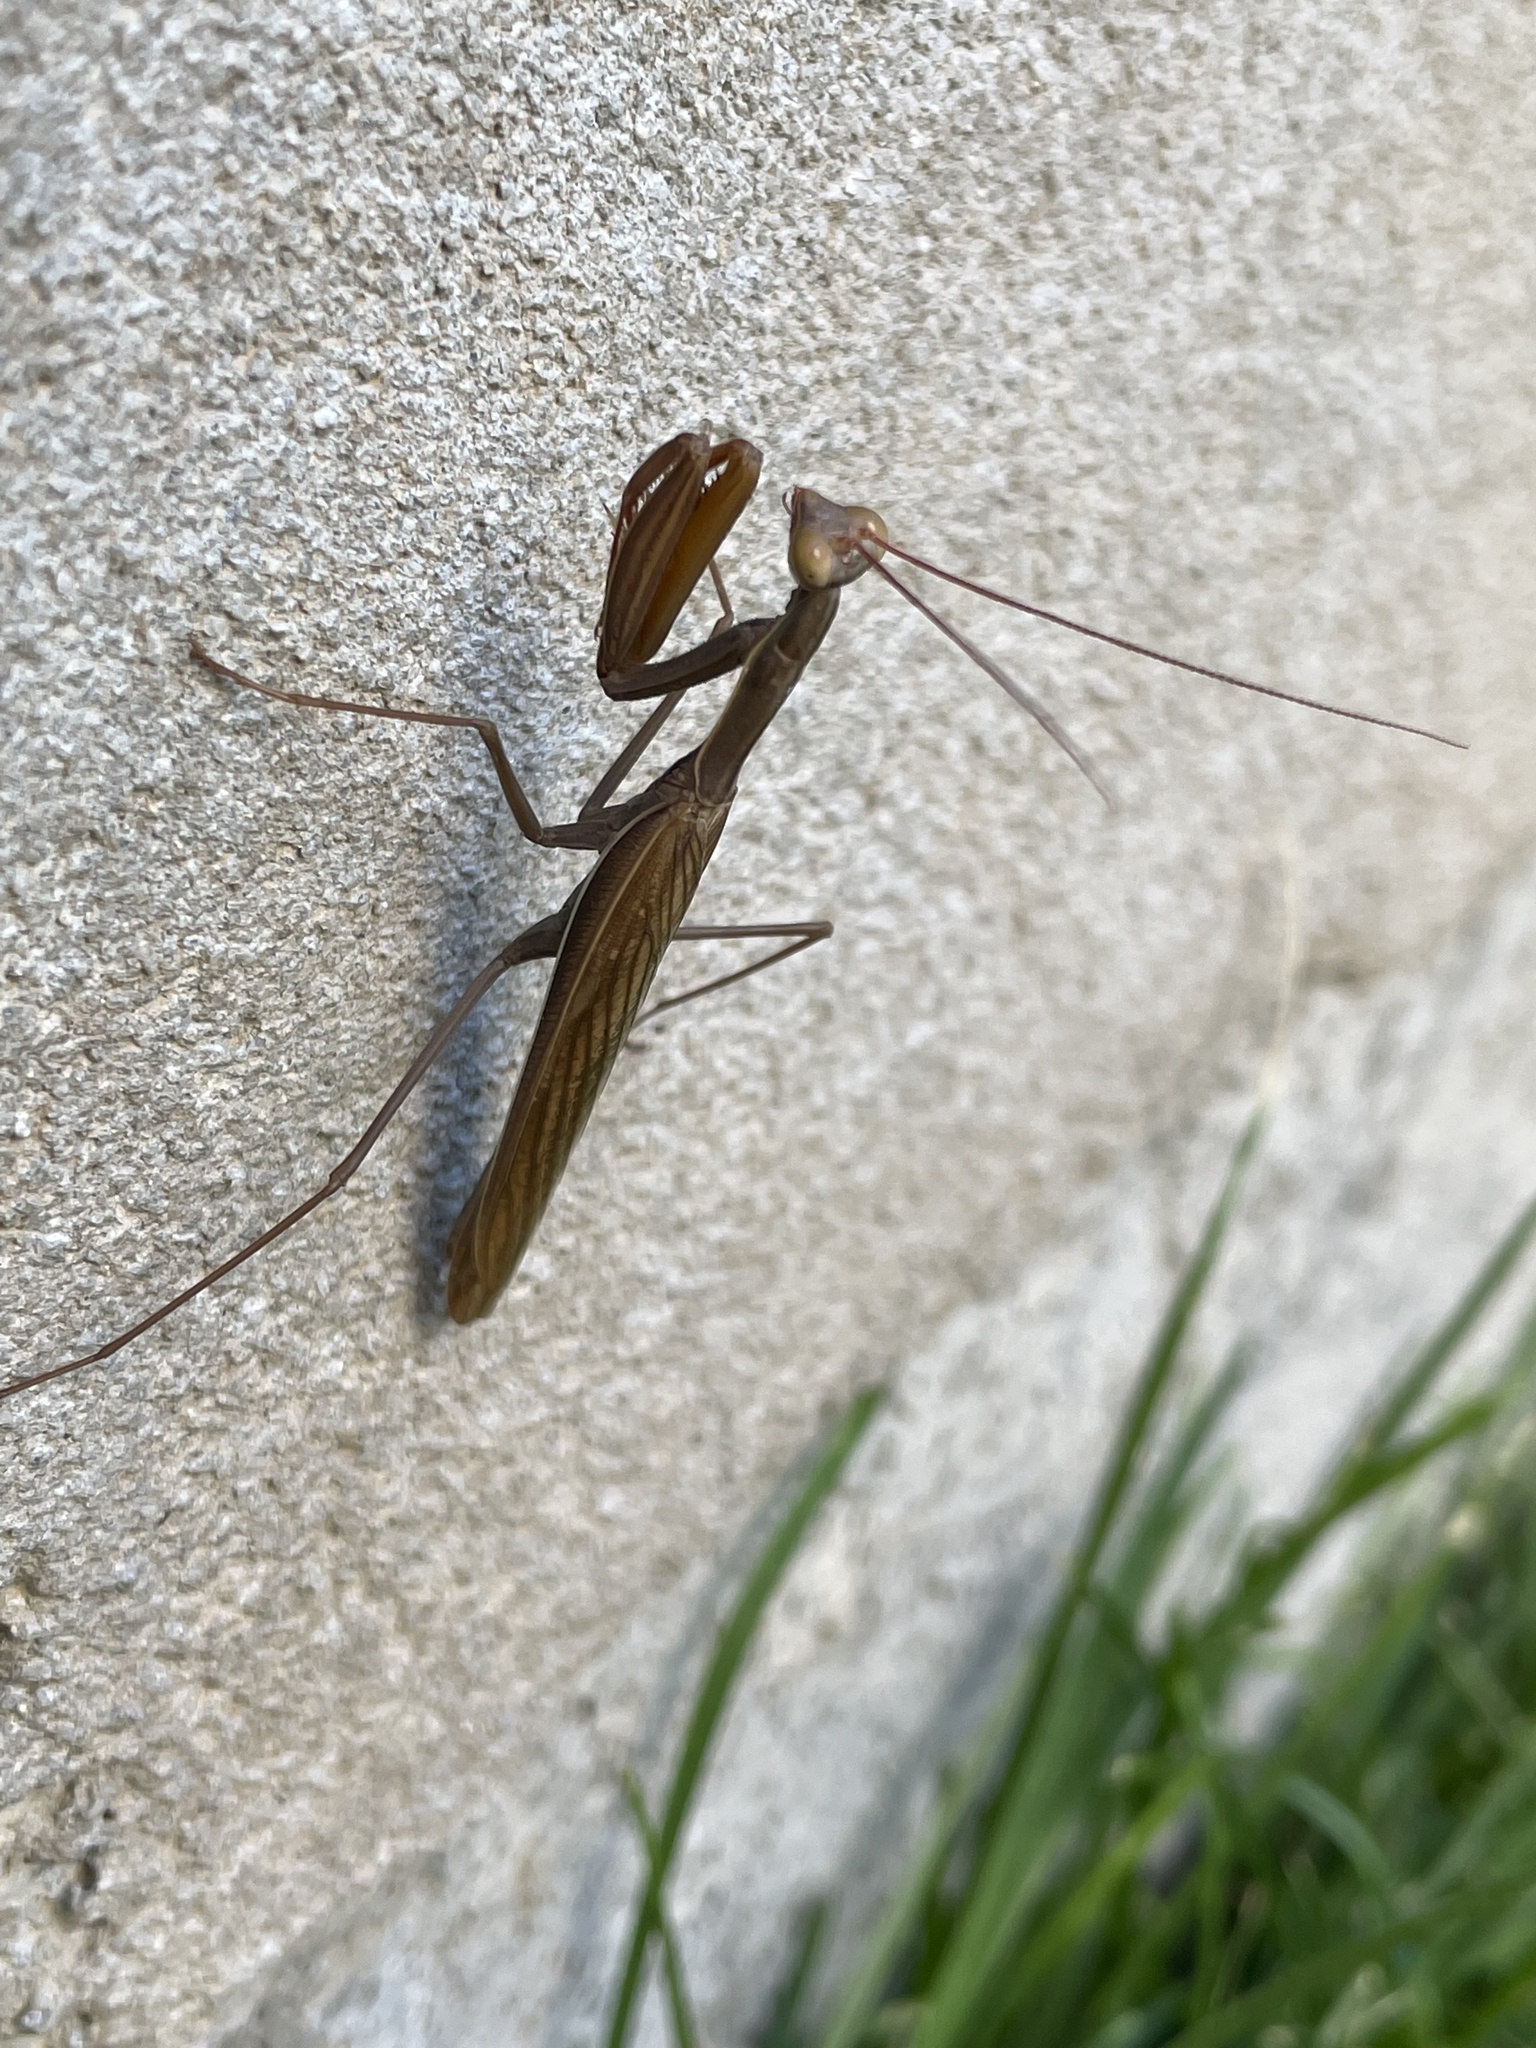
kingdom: Animalia
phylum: Arthropoda
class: Insecta
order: Mantodea
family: Mantidae
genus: Mantis
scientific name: Mantis religiosa
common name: Praying mantis
